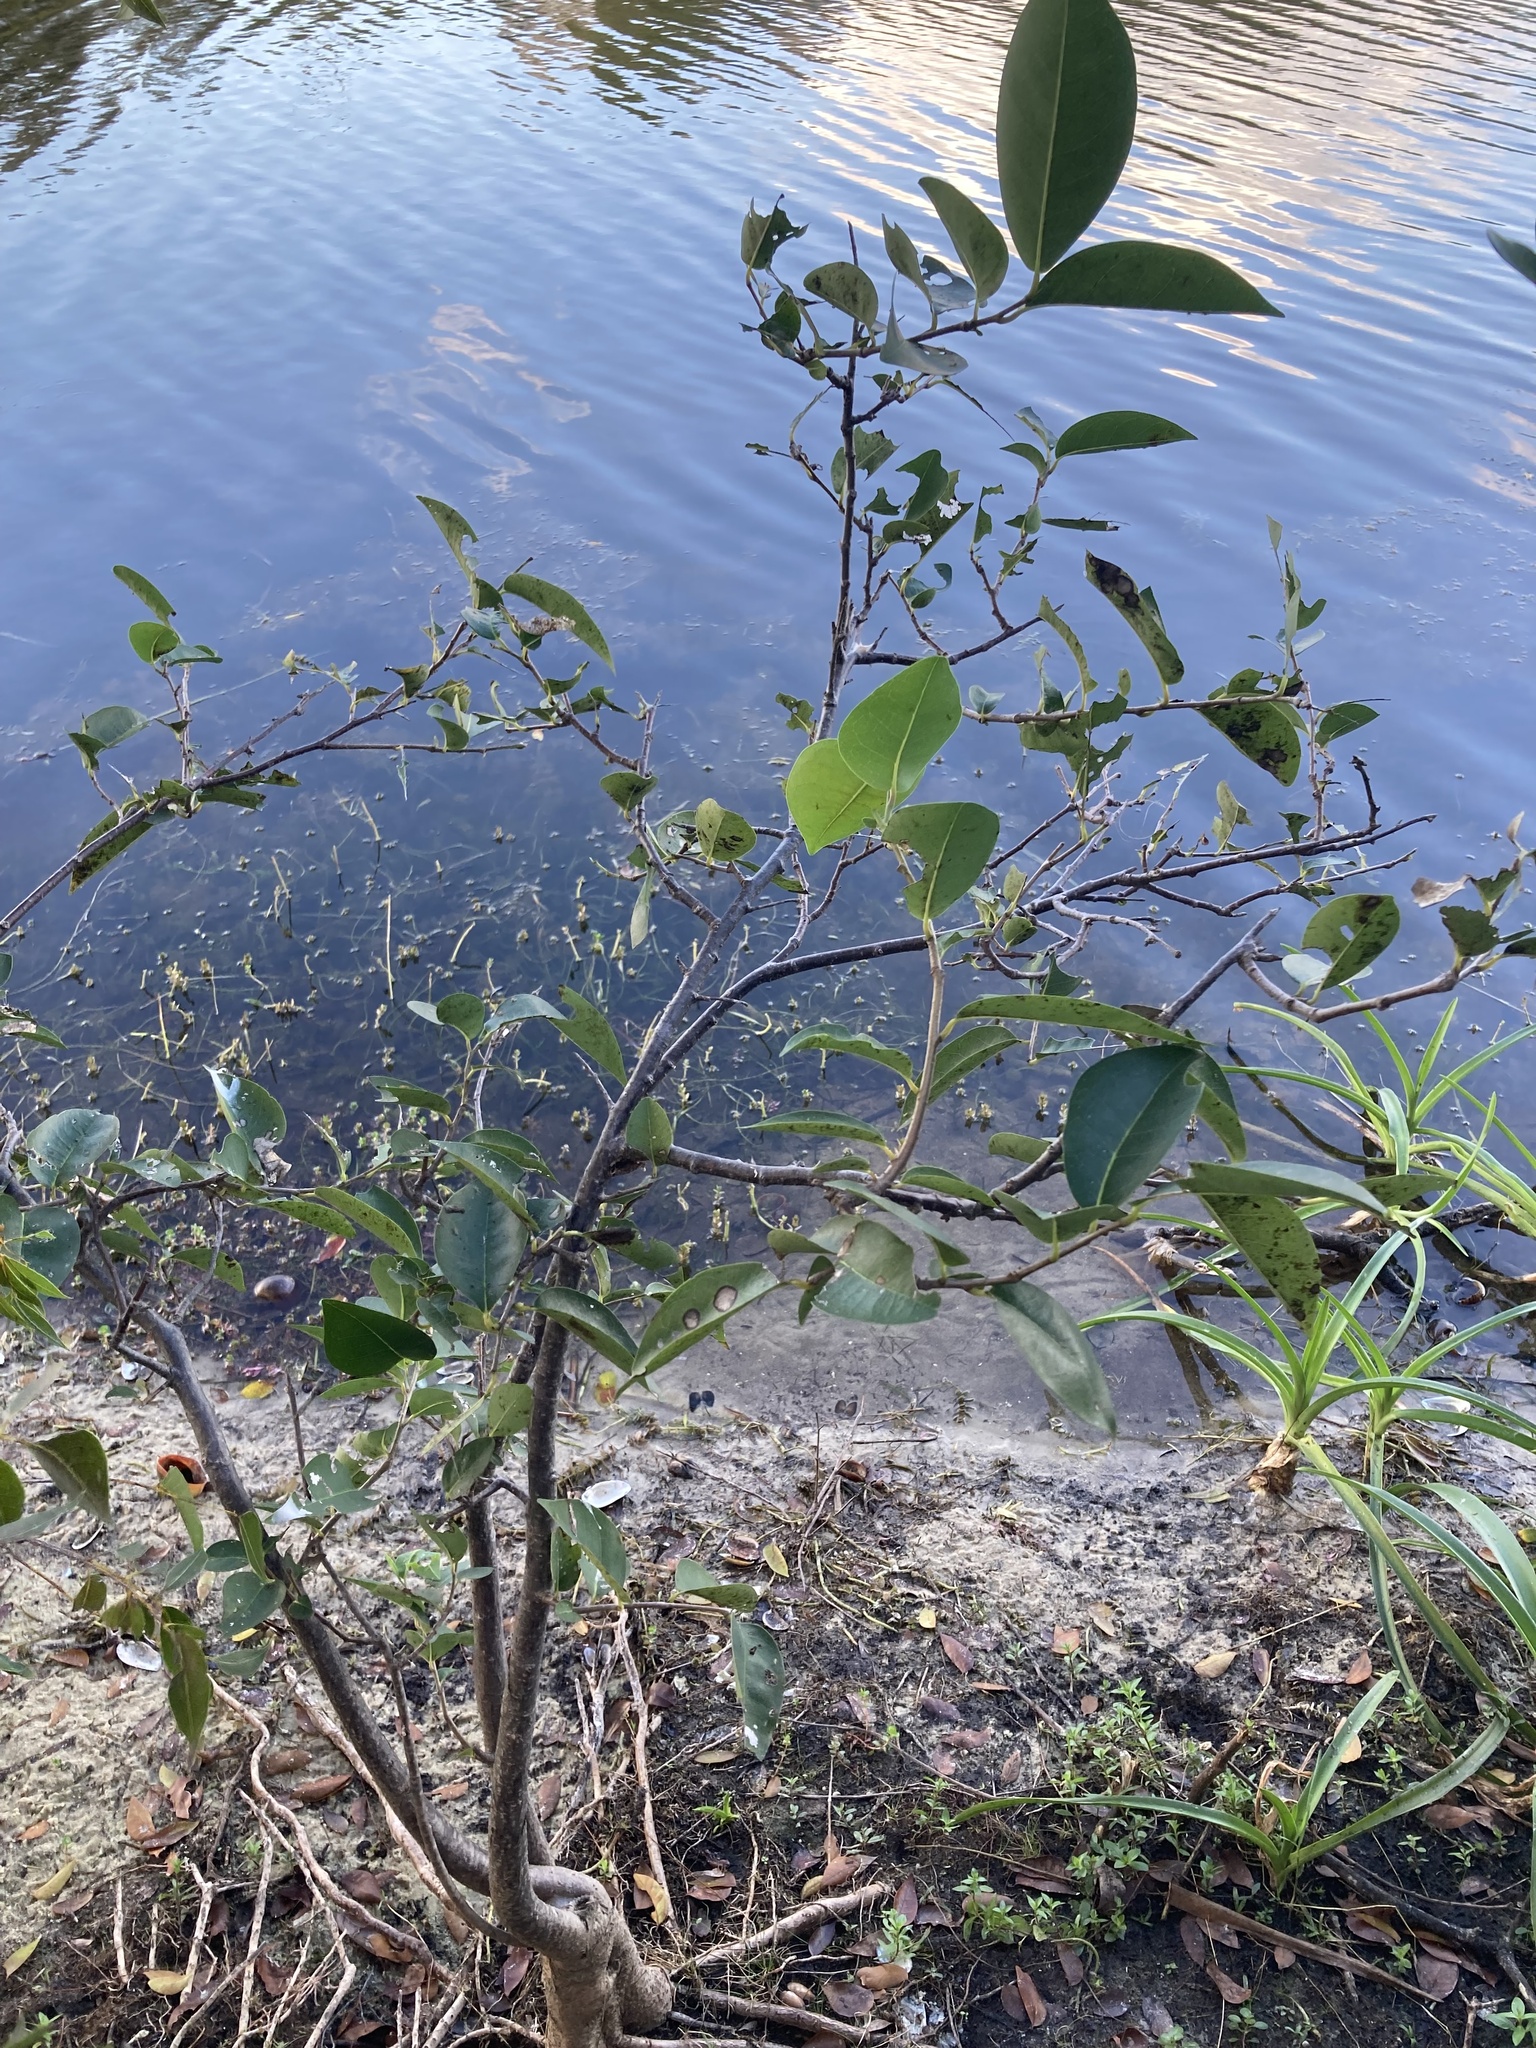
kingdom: Plantae
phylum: Tracheophyta
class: Magnoliopsida
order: Magnoliales
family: Annonaceae
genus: Annona
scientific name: Annona glabra
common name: Monkey apple
